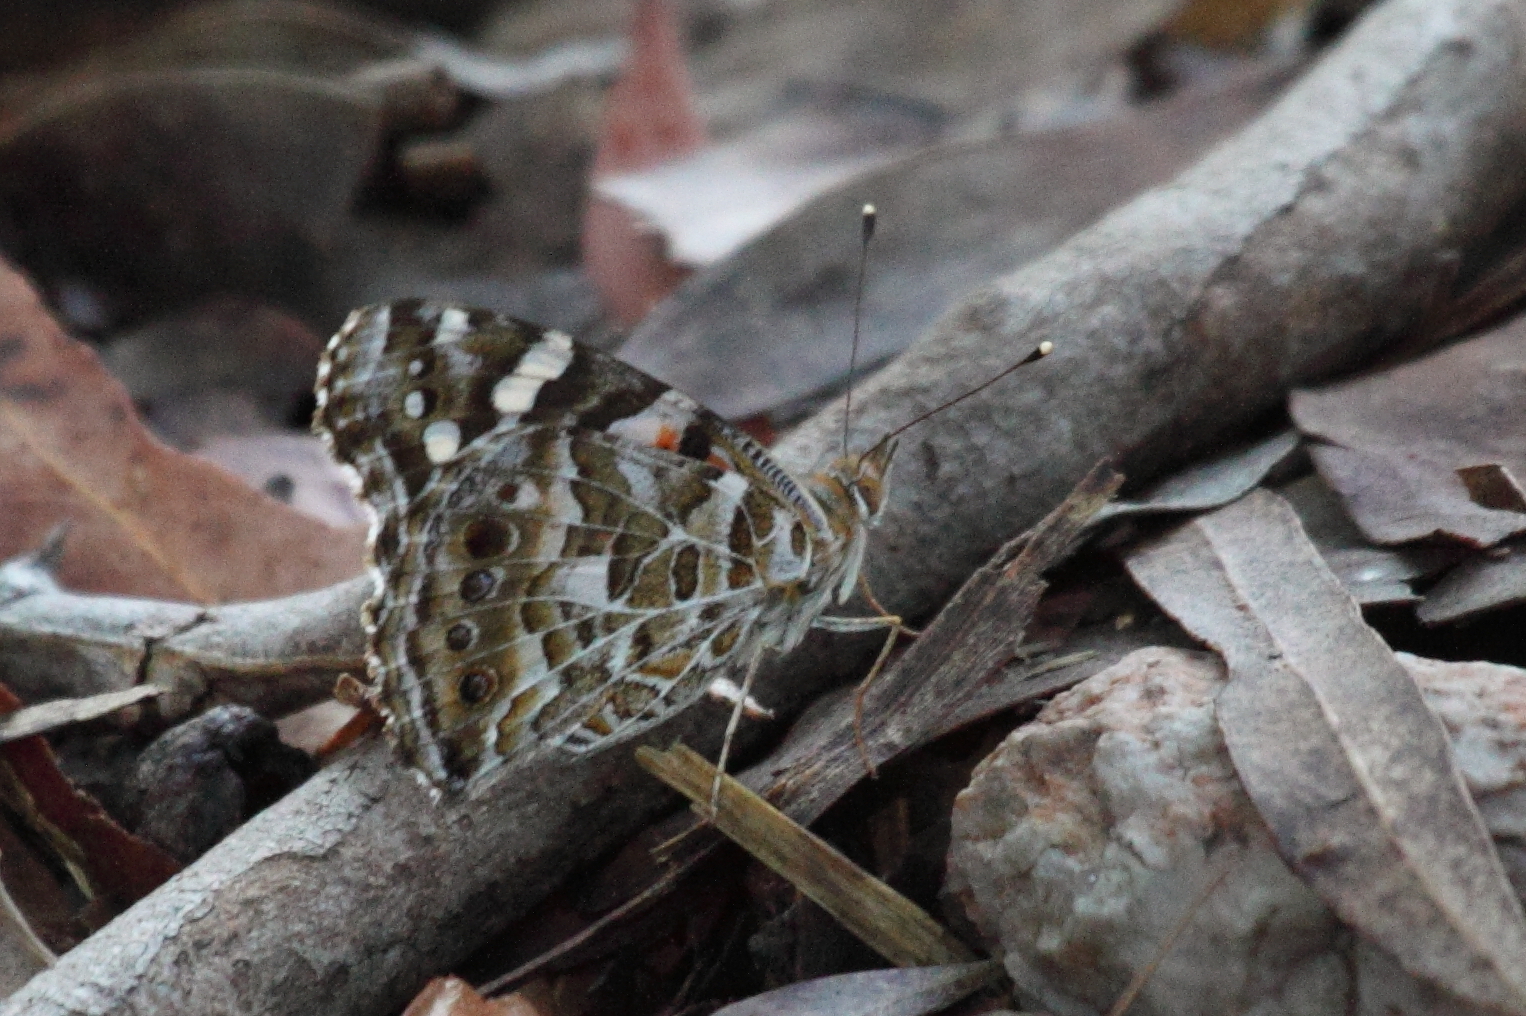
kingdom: Animalia
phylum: Arthropoda
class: Insecta
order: Lepidoptera
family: Nymphalidae
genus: Vanessa
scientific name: Vanessa kershawi
